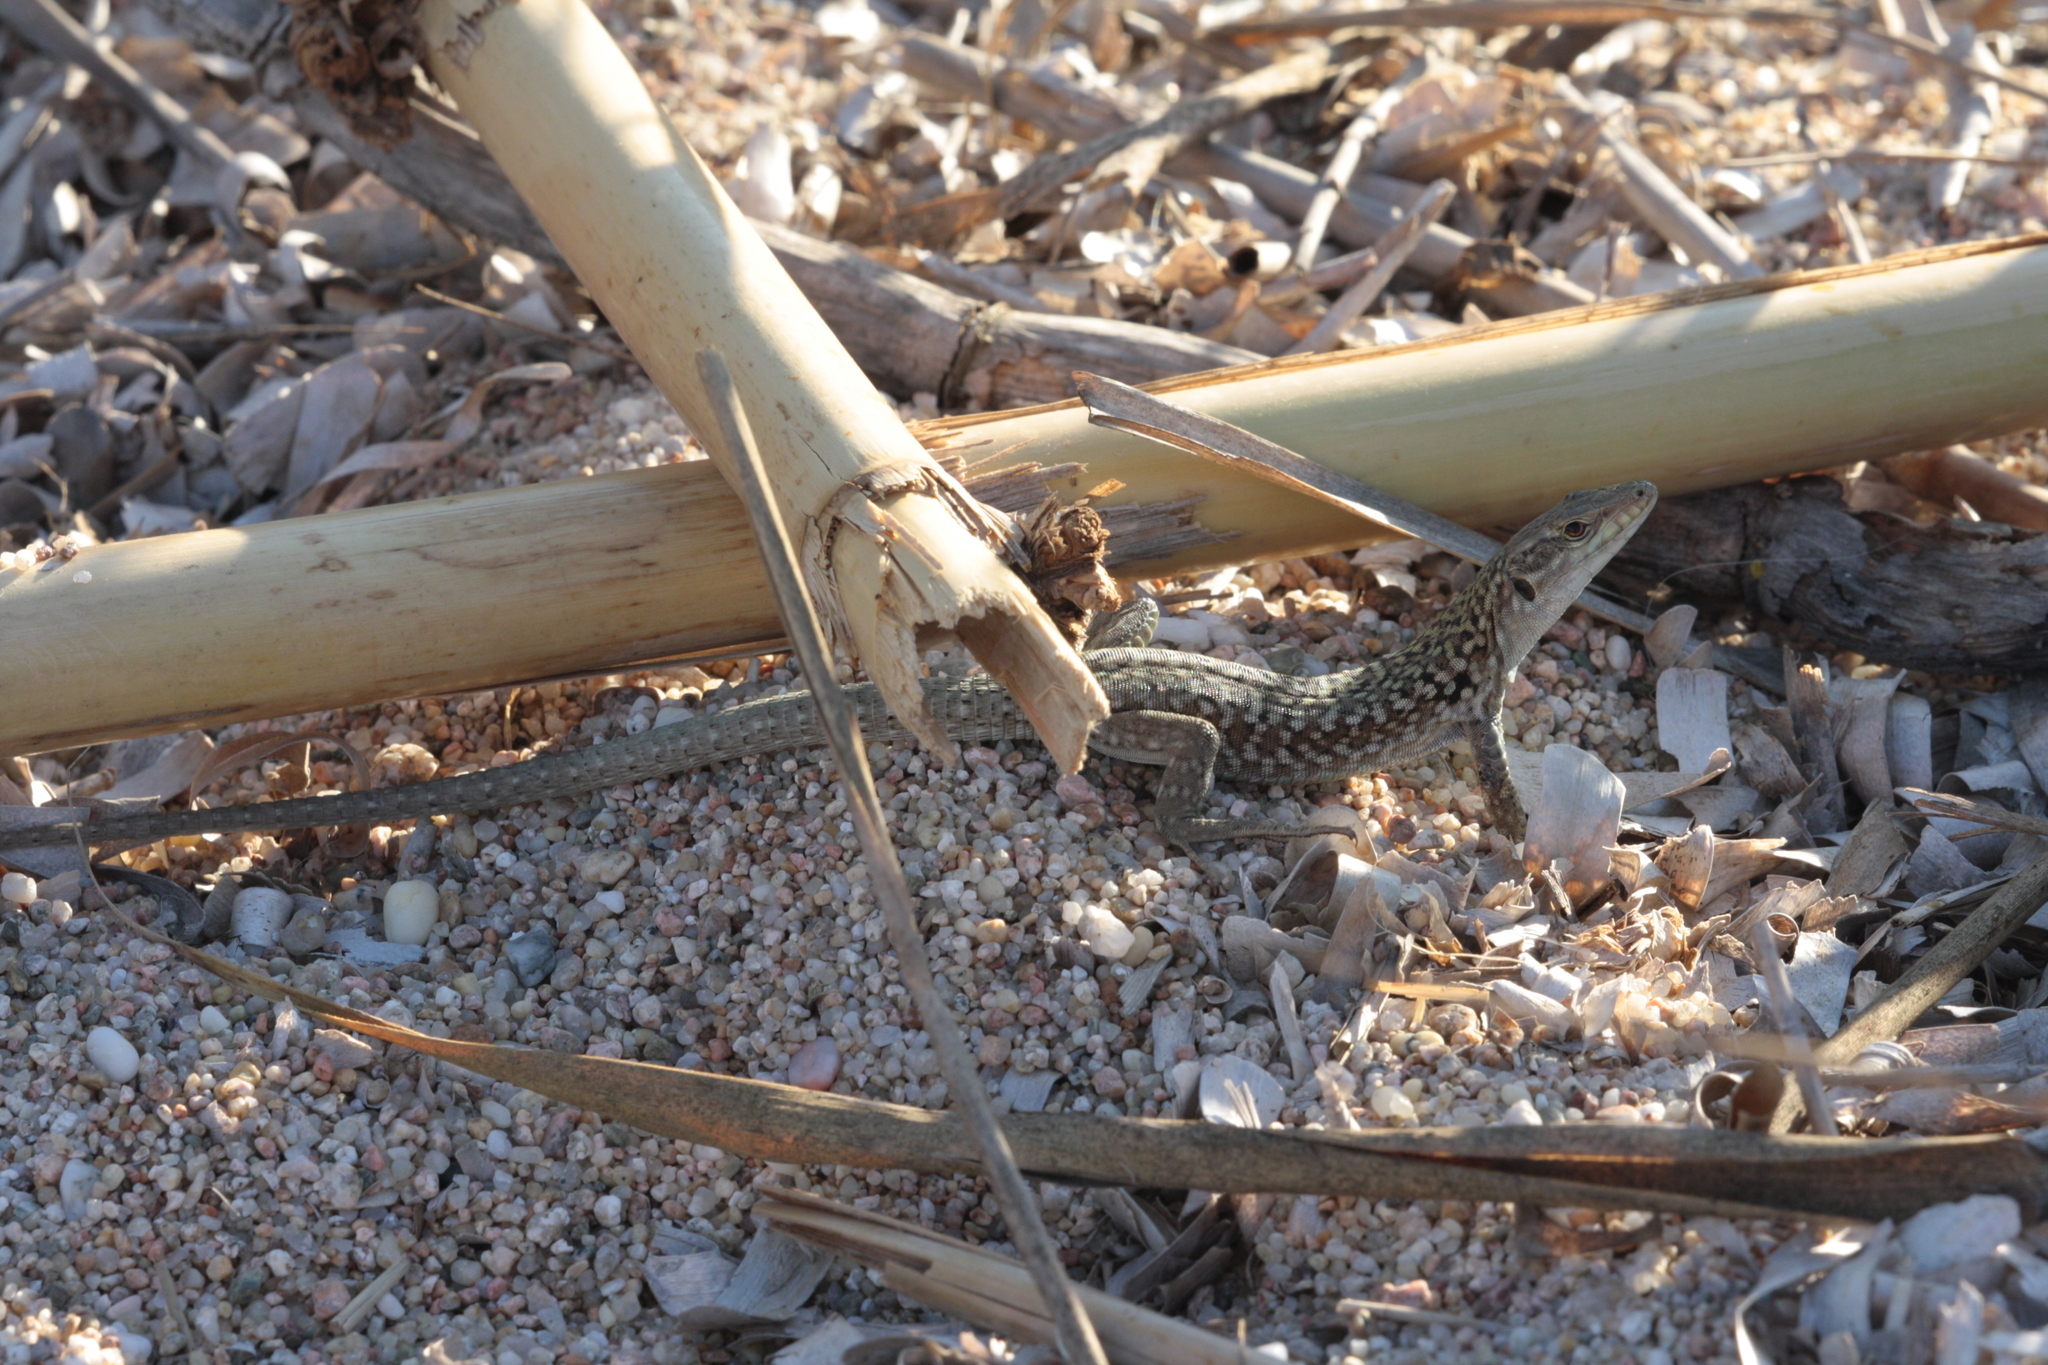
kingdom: Animalia
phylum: Chordata
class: Squamata
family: Lacertidae
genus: Podarcis
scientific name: Podarcis siculus
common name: Italian wall lizard
